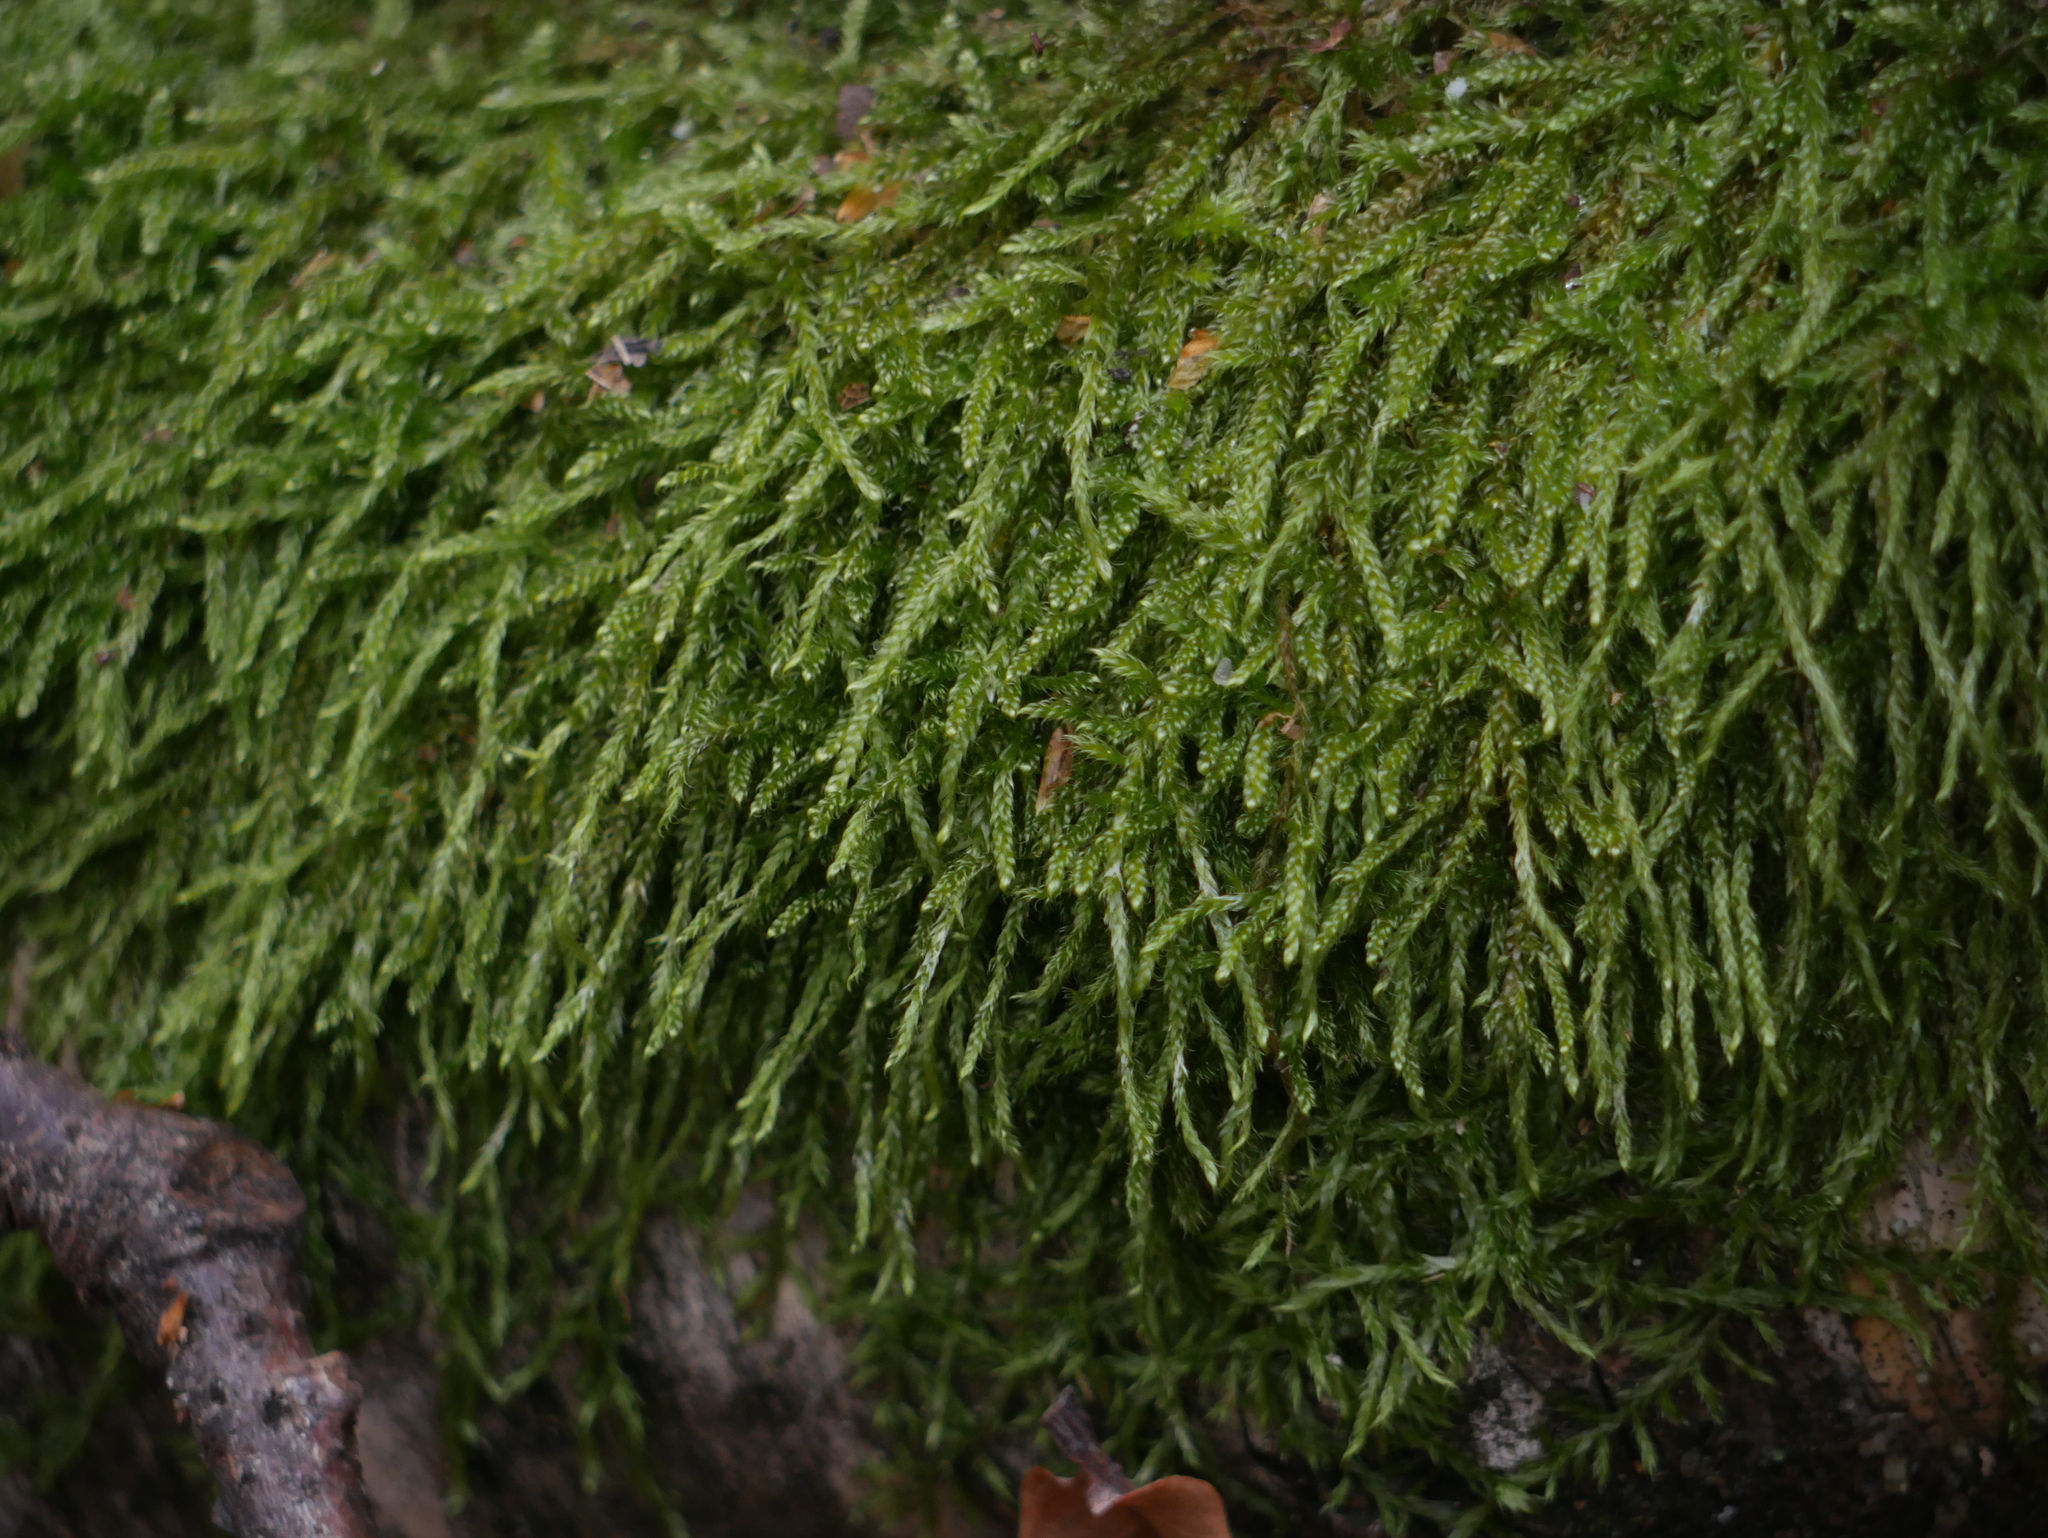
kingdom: Plantae
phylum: Bryophyta
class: Bryopsida
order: Hypnales
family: Hypnaceae
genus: Hypnum
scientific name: Hypnum cupressiforme
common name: Cypress-leaved plait-moss
